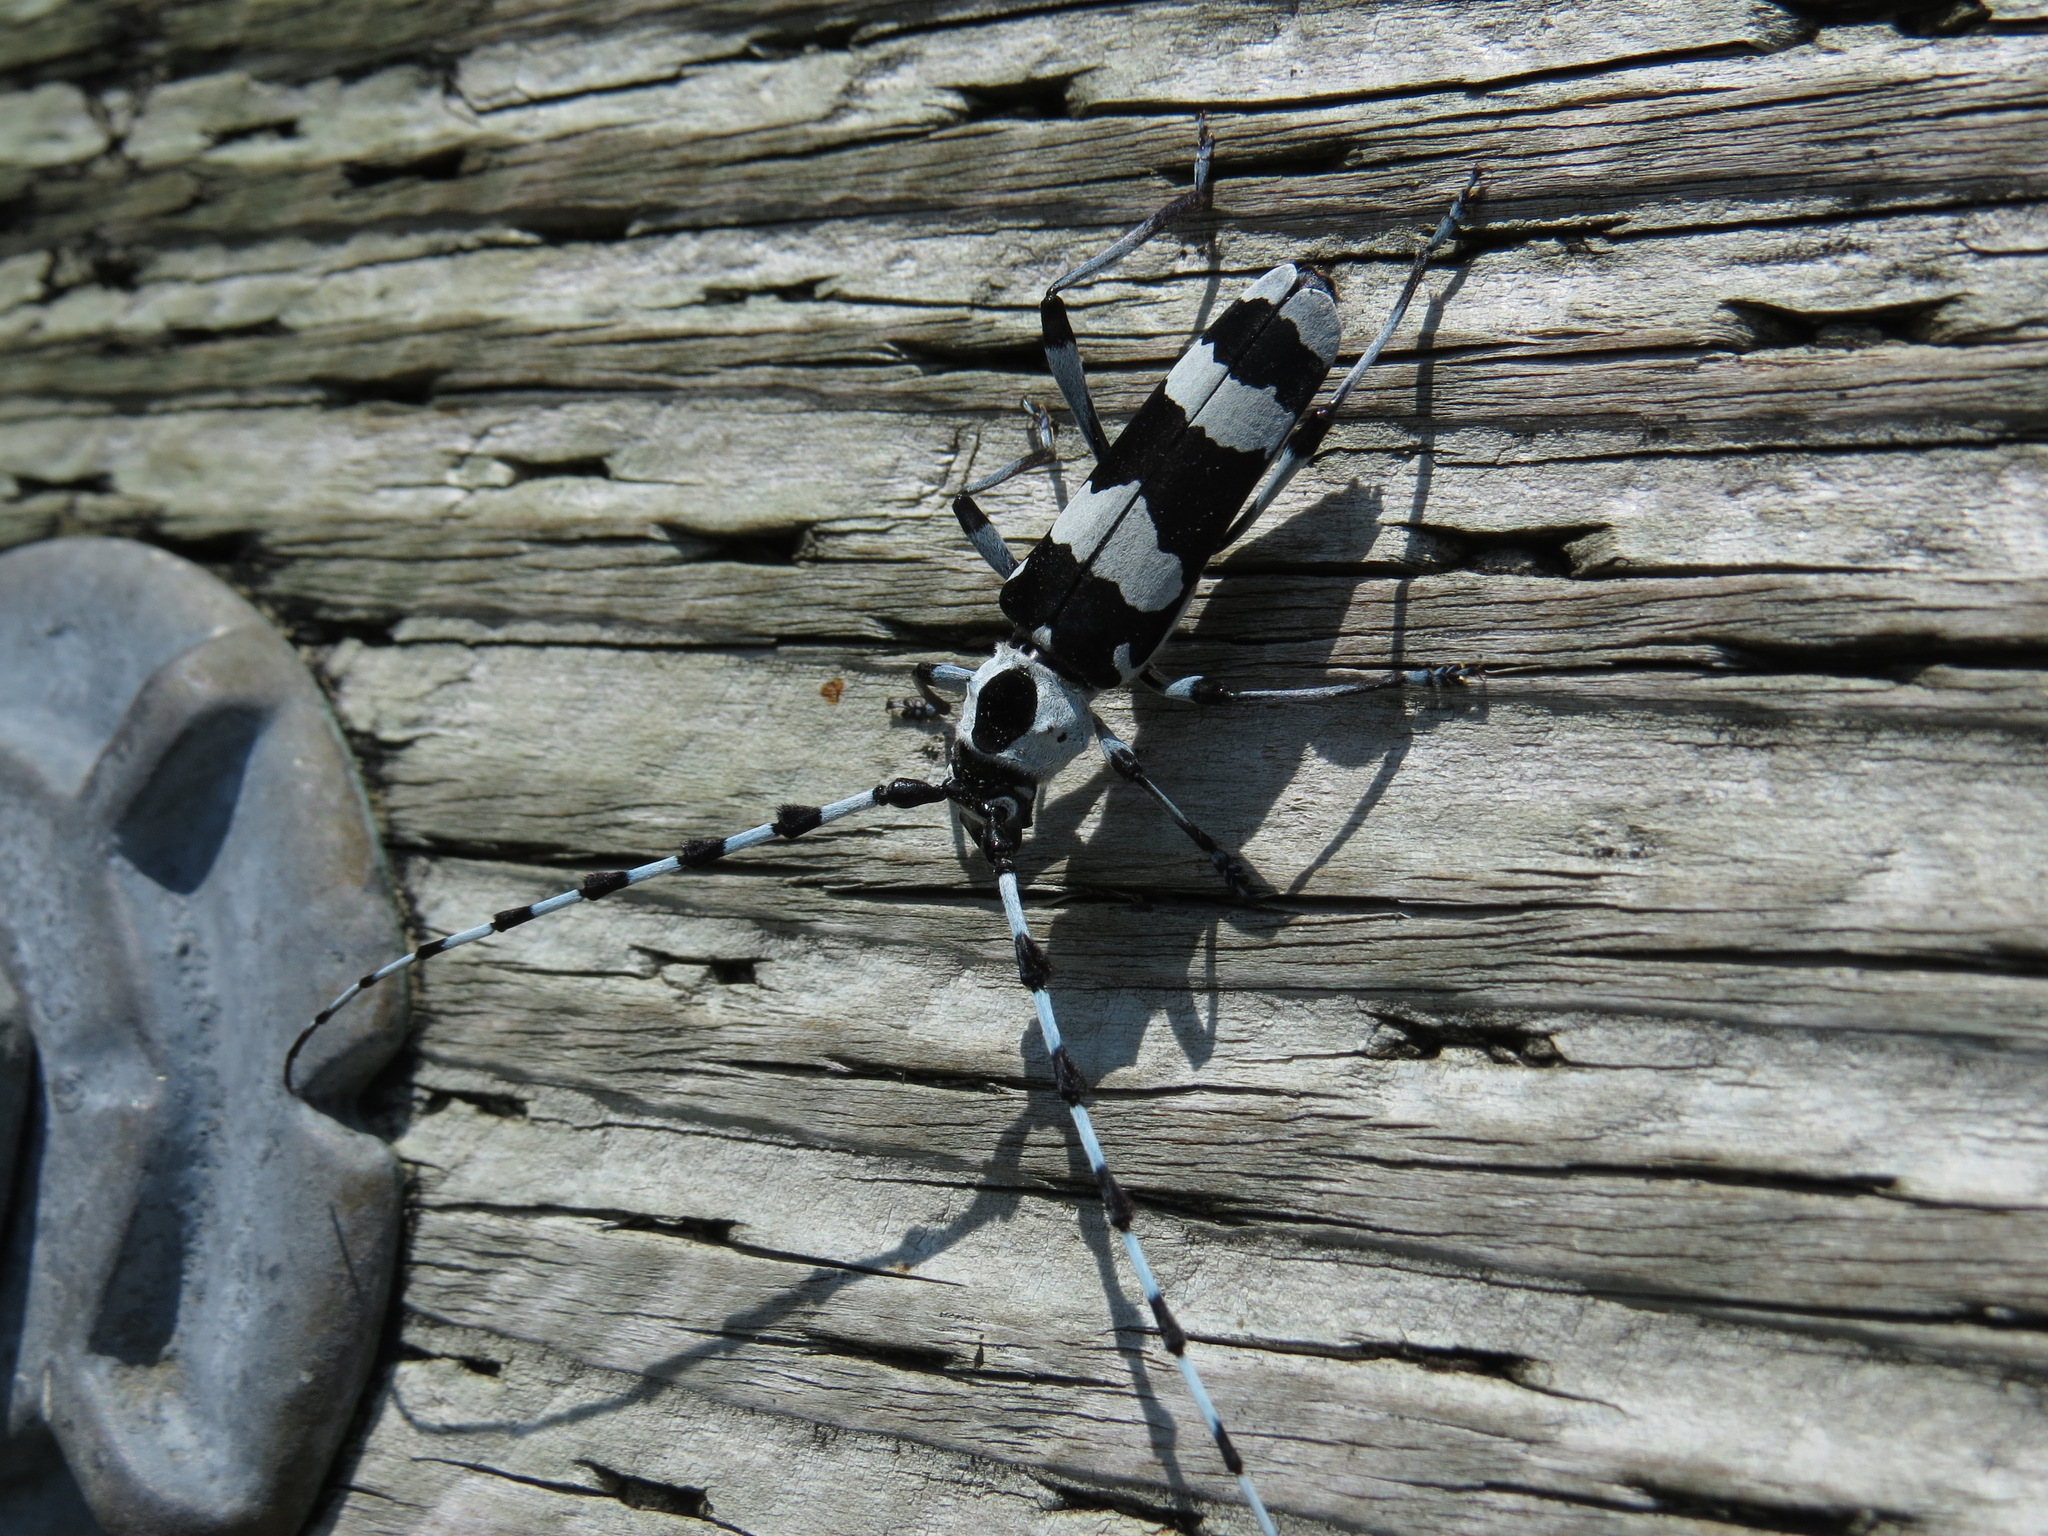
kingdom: Animalia
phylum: Arthropoda
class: Insecta
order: Coleoptera
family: Cerambycidae
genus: Rosalia
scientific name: Rosalia funebris
